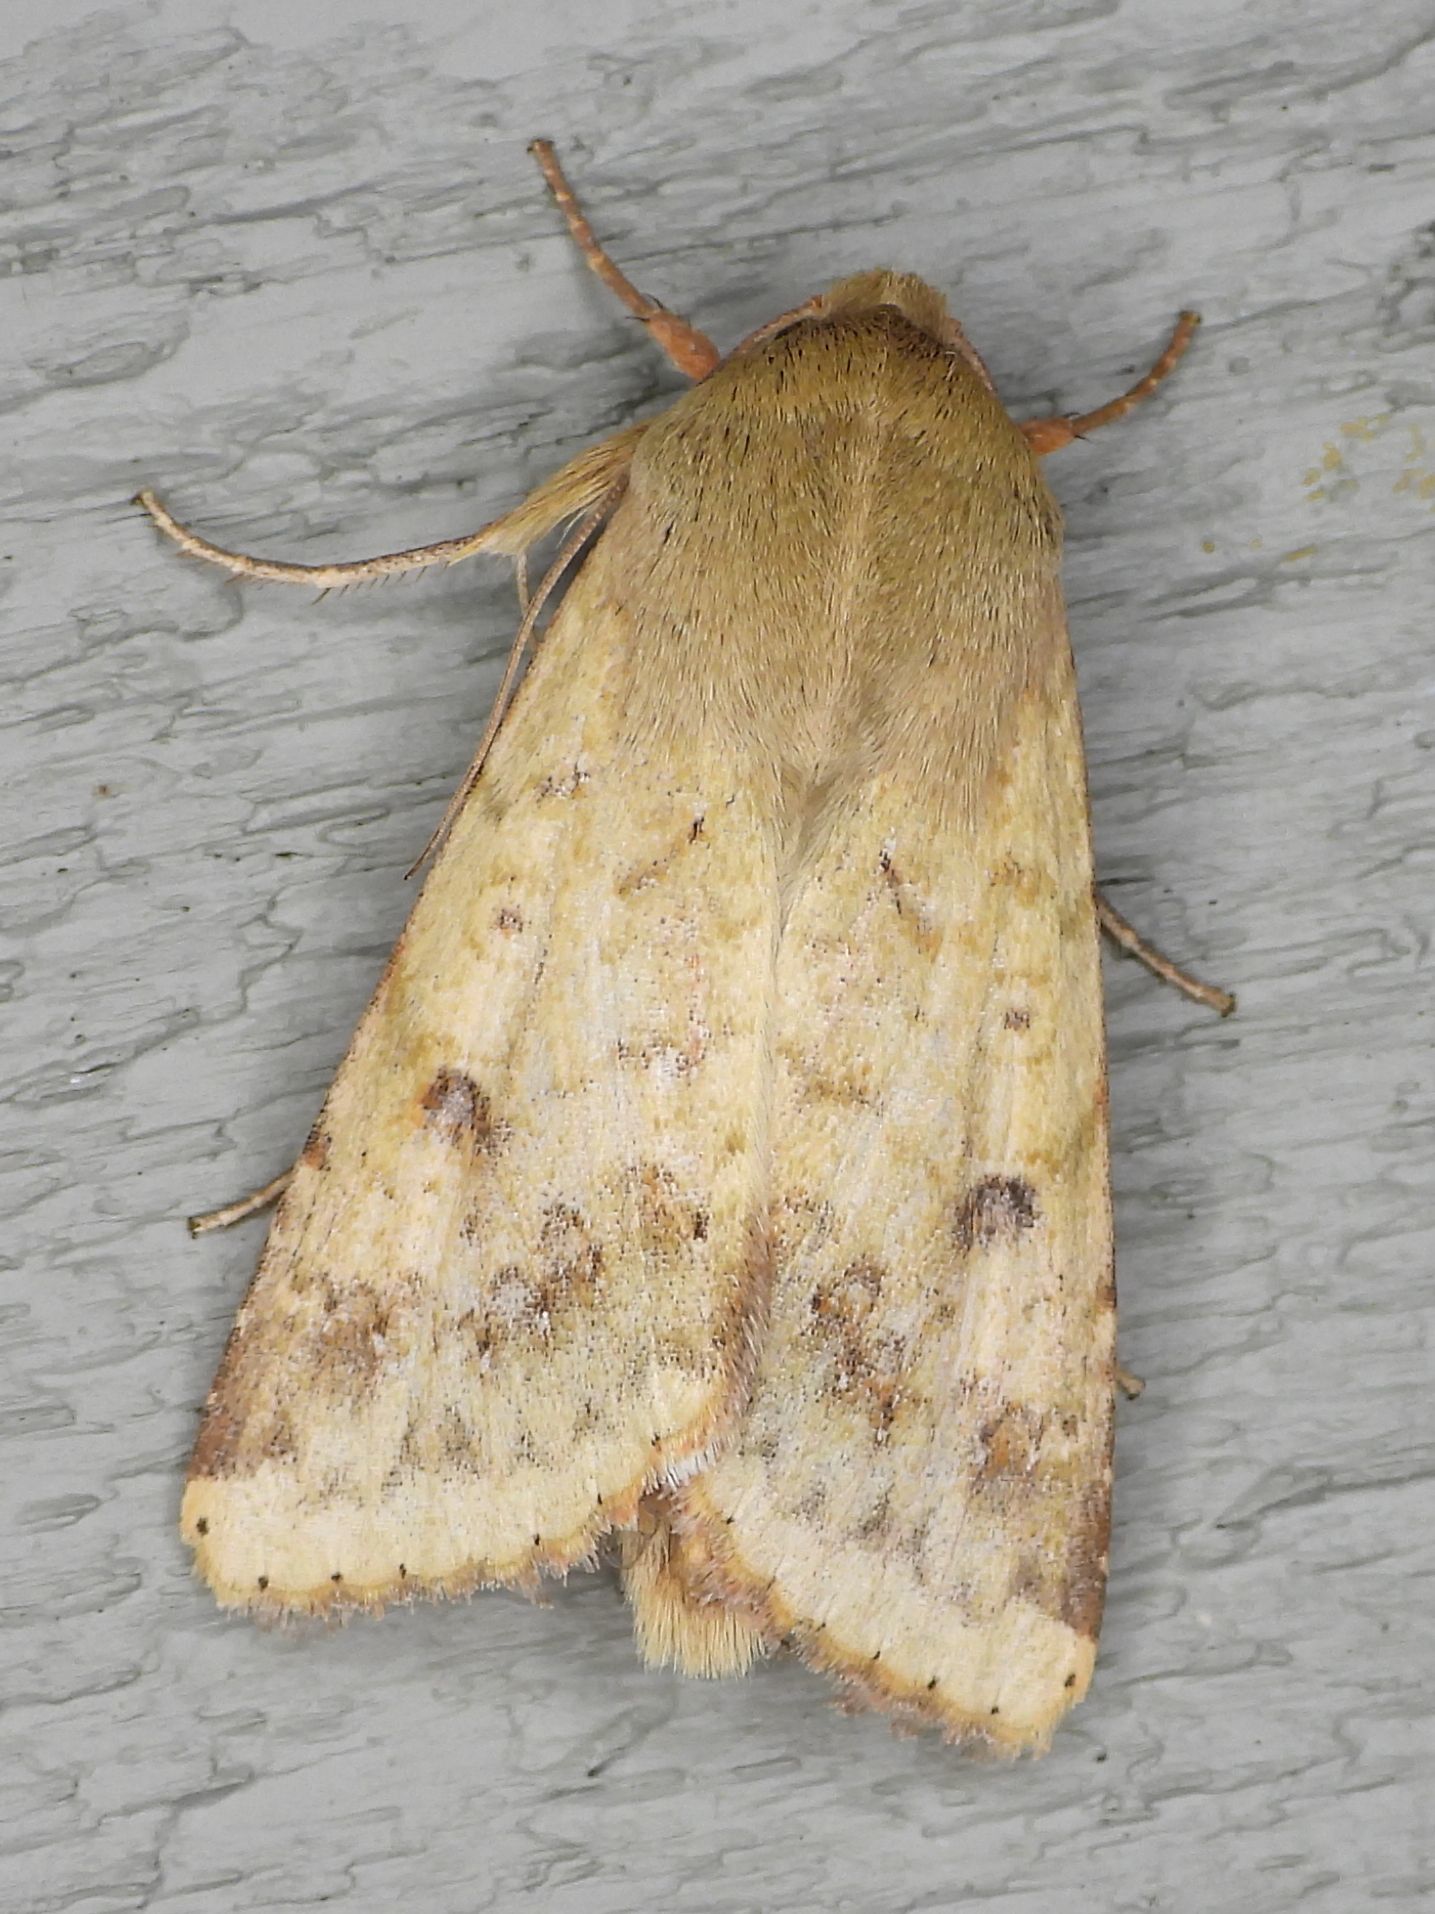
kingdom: Animalia
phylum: Arthropoda
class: Insecta
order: Lepidoptera
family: Noctuidae
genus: Helicoverpa
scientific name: Helicoverpa zea
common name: Bollworm
